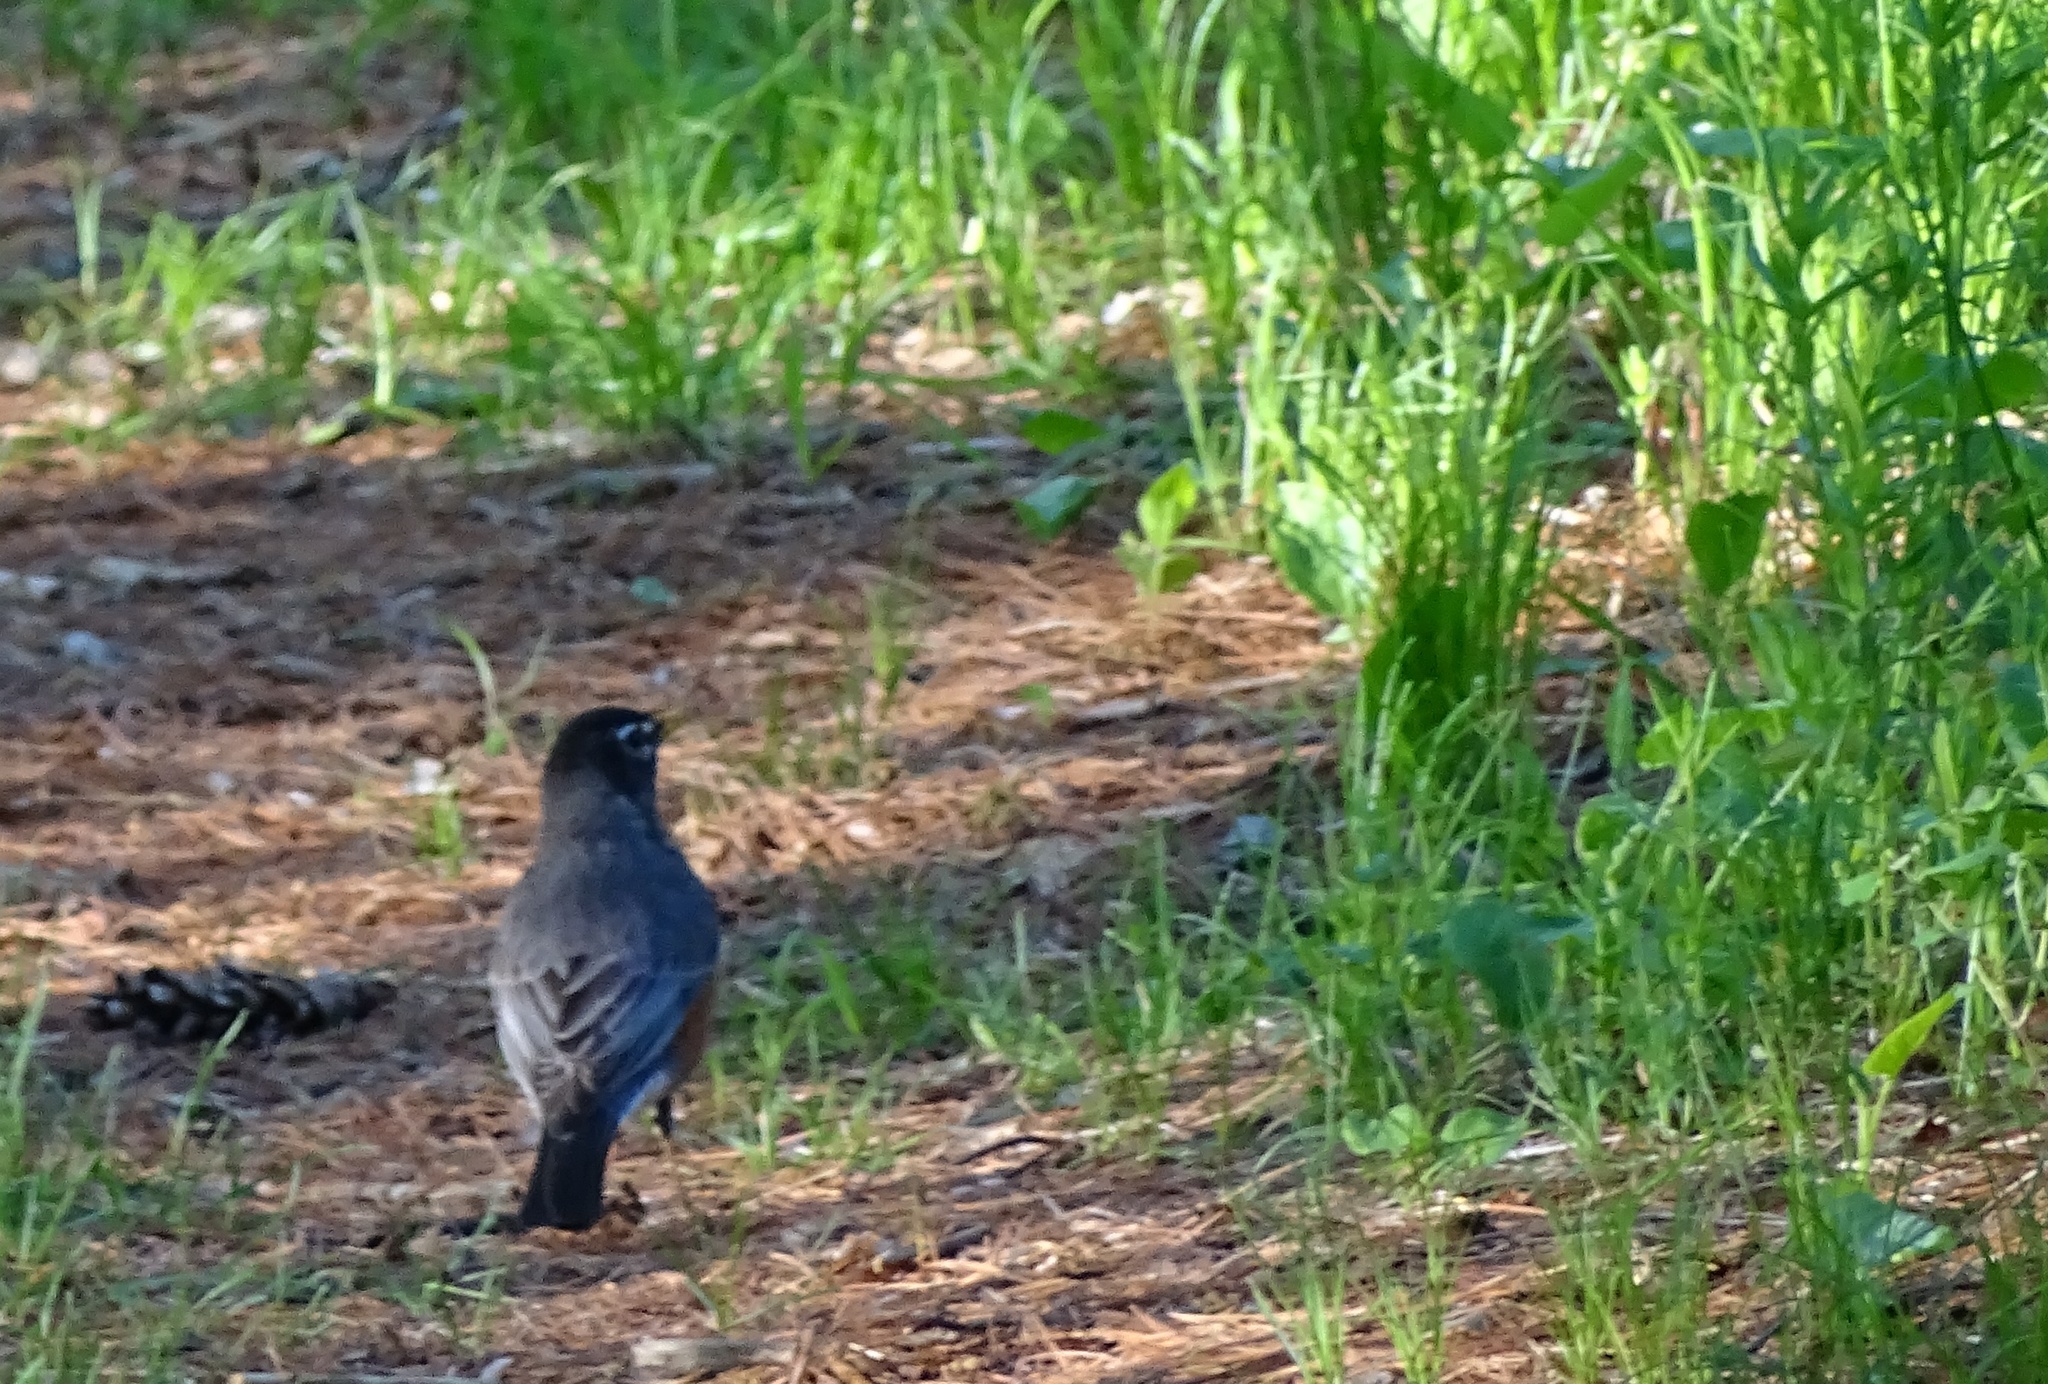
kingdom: Animalia
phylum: Chordata
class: Aves
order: Passeriformes
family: Turdidae
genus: Turdus
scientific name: Turdus migratorius
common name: American robin
